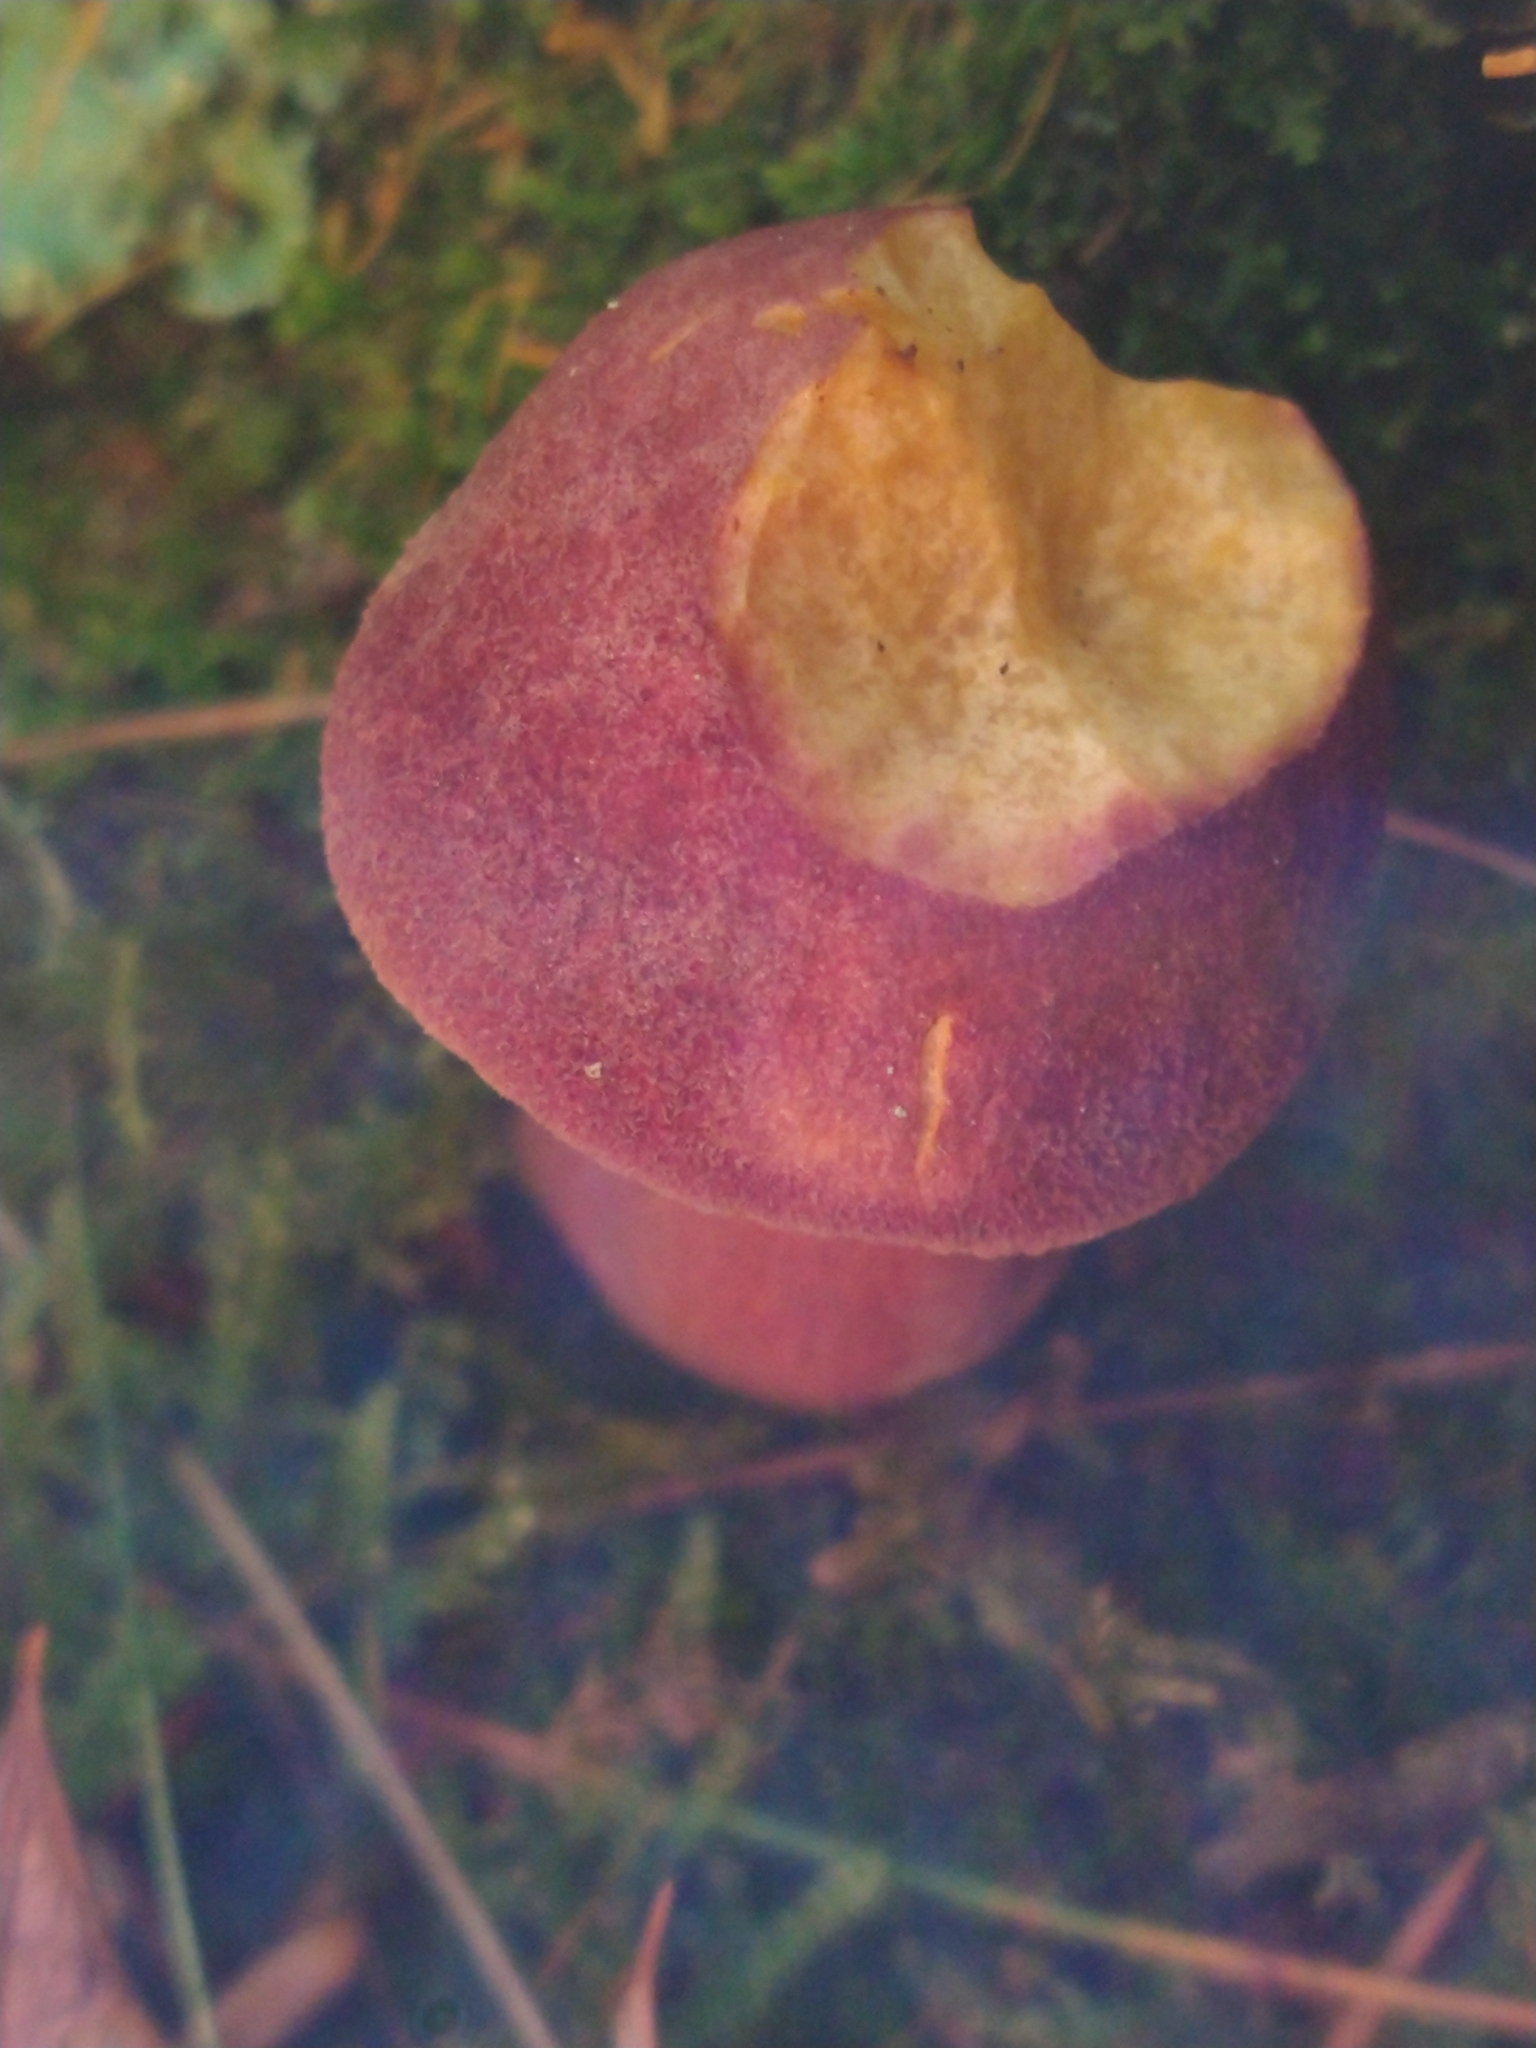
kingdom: Fungi
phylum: Basidiomycota
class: Agaricomycetes
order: Agaricales
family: Tricholomataceae
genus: Tricholomopsis
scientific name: Tricholomopsis rutilans
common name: Plums and custard
